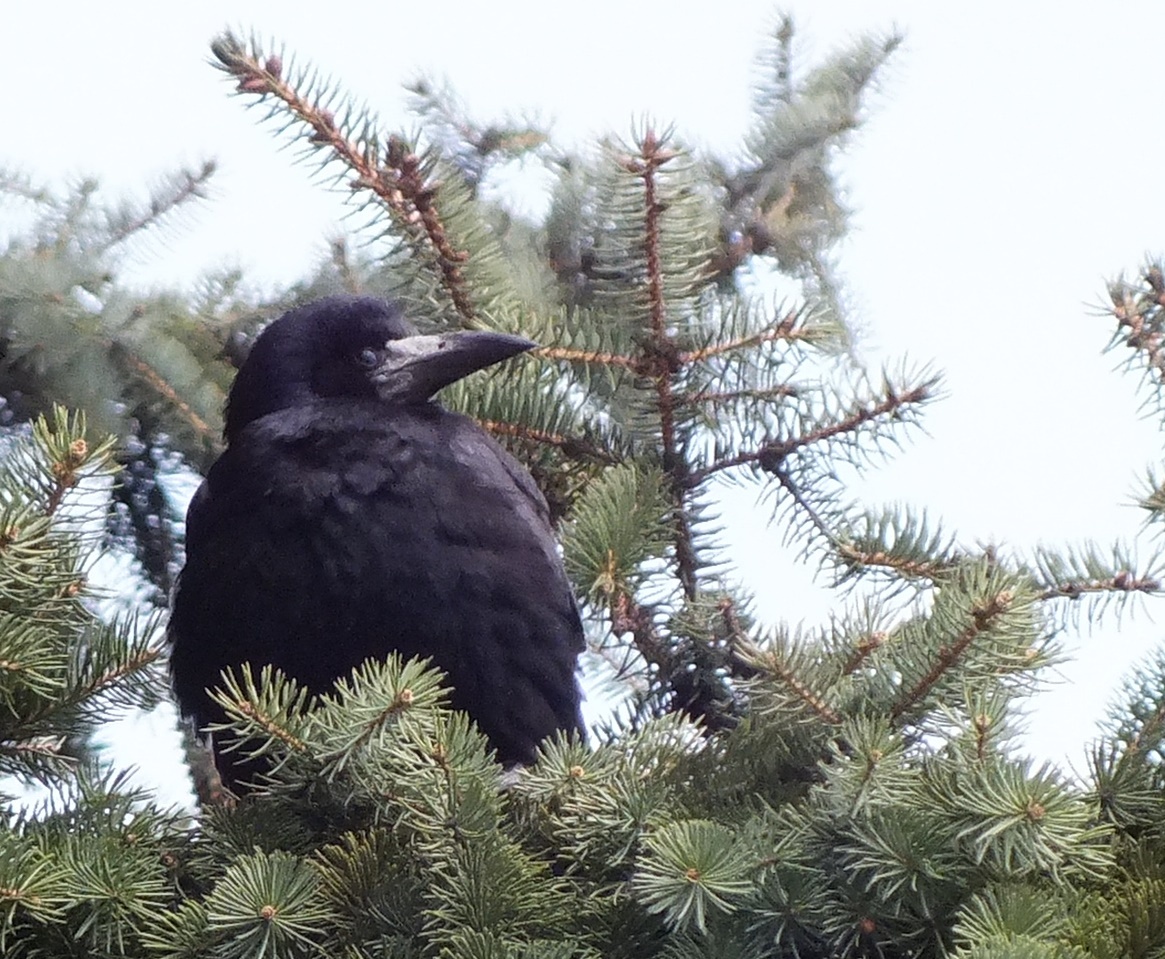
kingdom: Animalia
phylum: Chordata
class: Aves
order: Passeriformes
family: Corvidae
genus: Corvus
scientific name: Corvus frugilegus
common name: Rook
